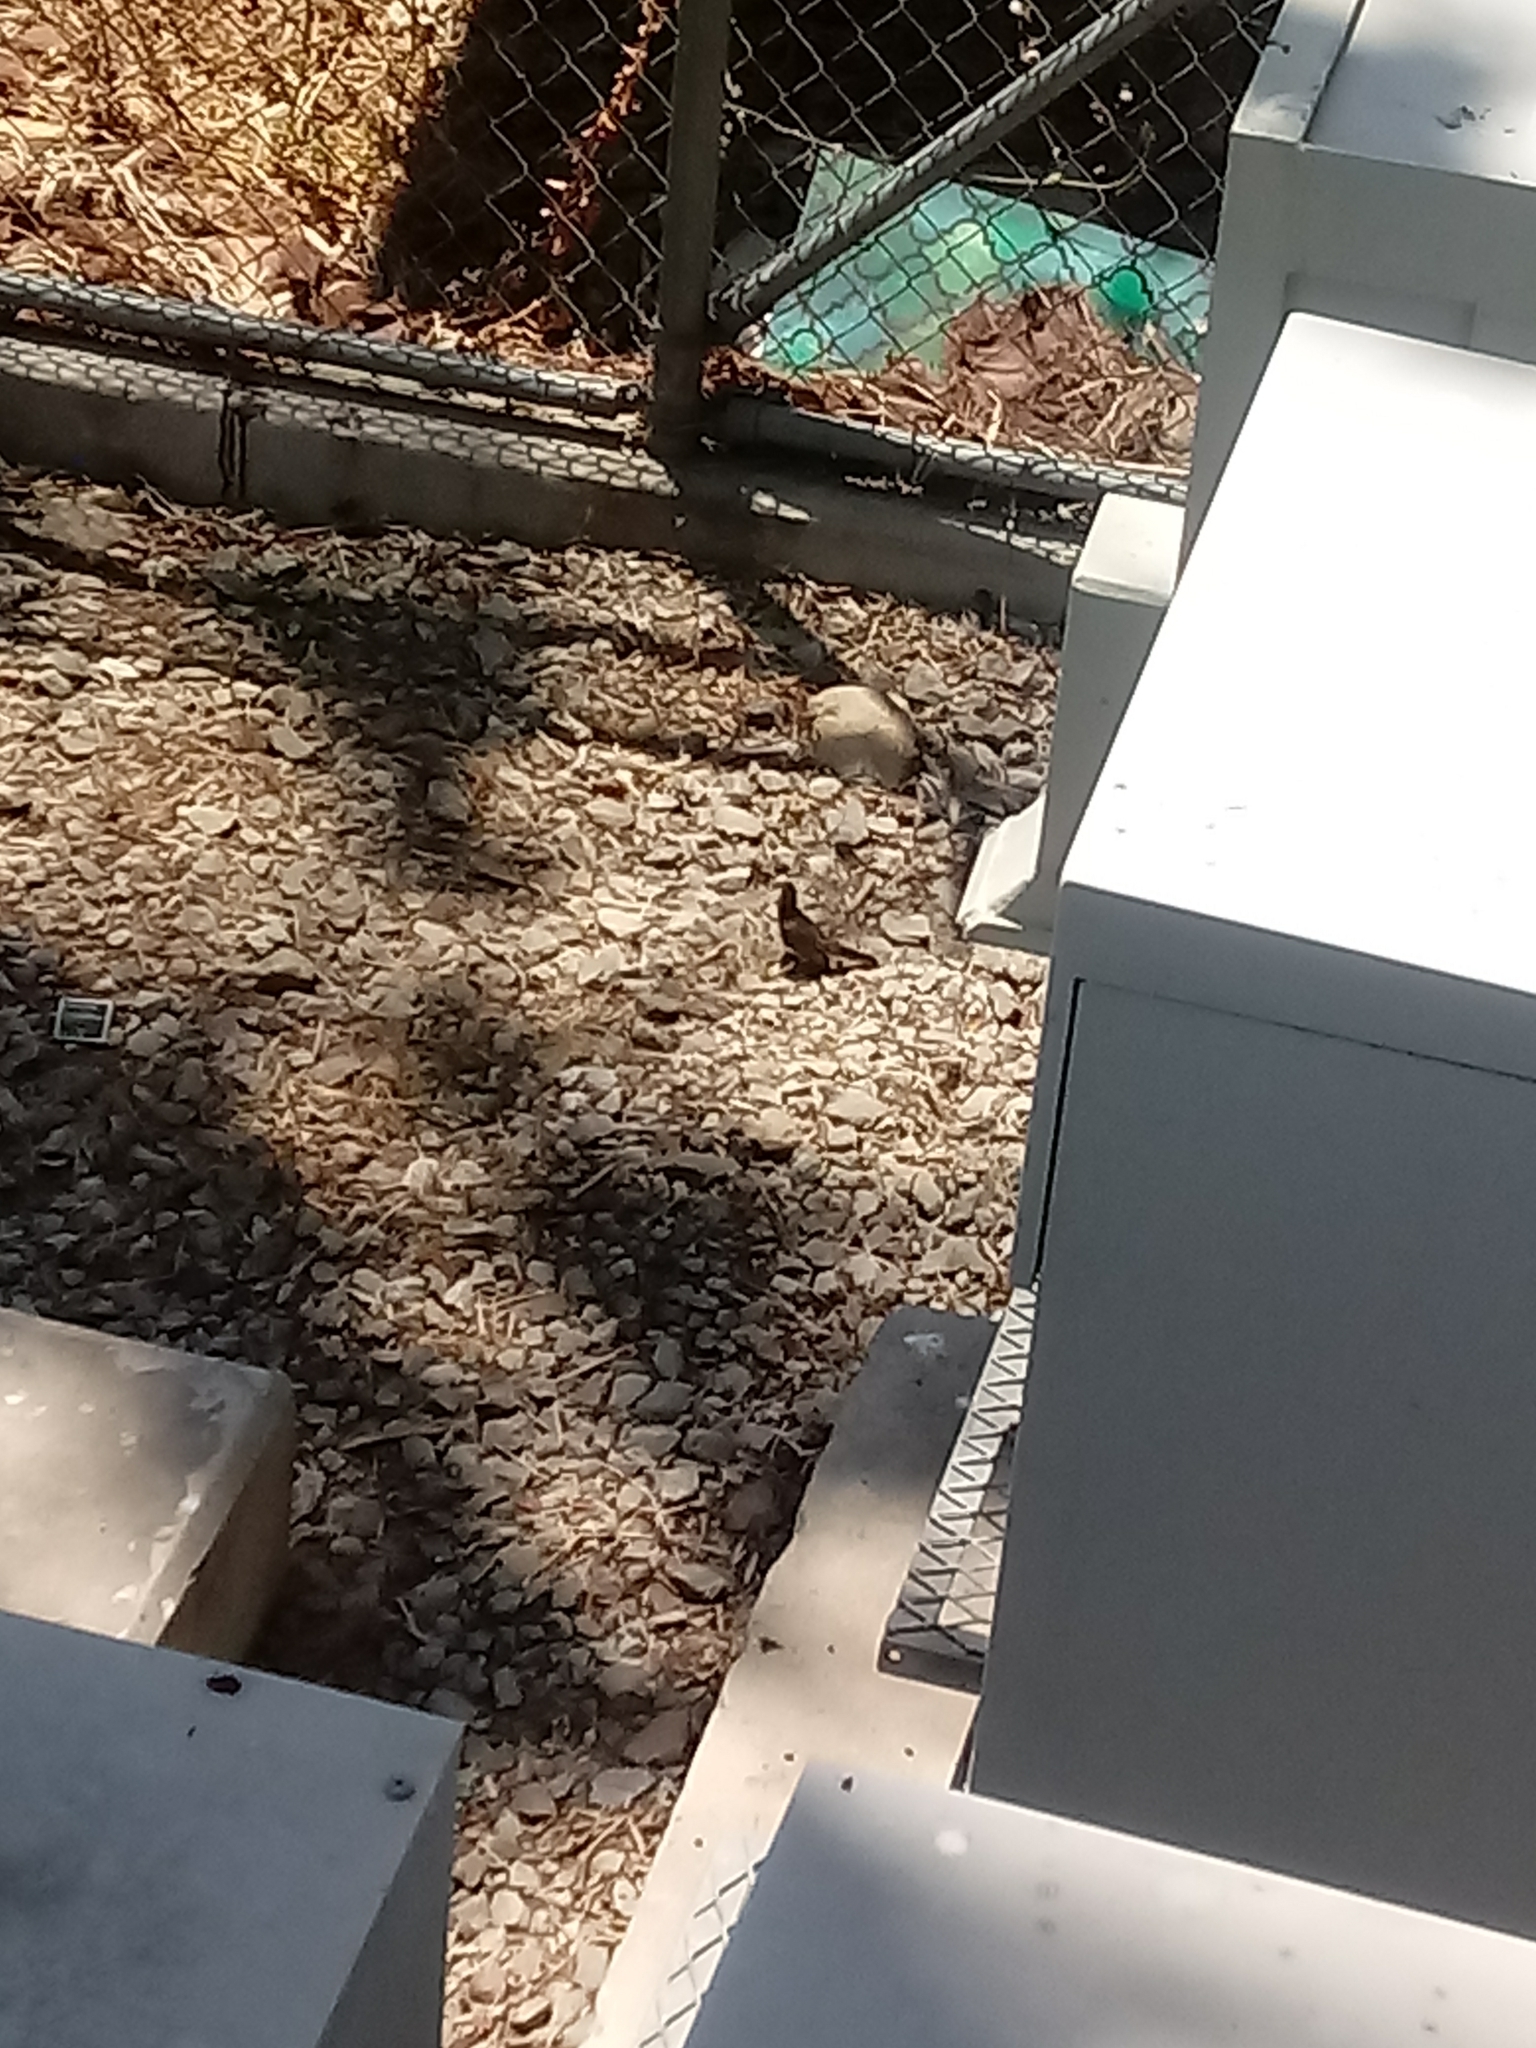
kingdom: Animalia
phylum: Chordata
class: Aves
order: Passeriformes
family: Tyrannidae
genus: Sayornis
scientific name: Sayornis nigricans
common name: Black phoebe
